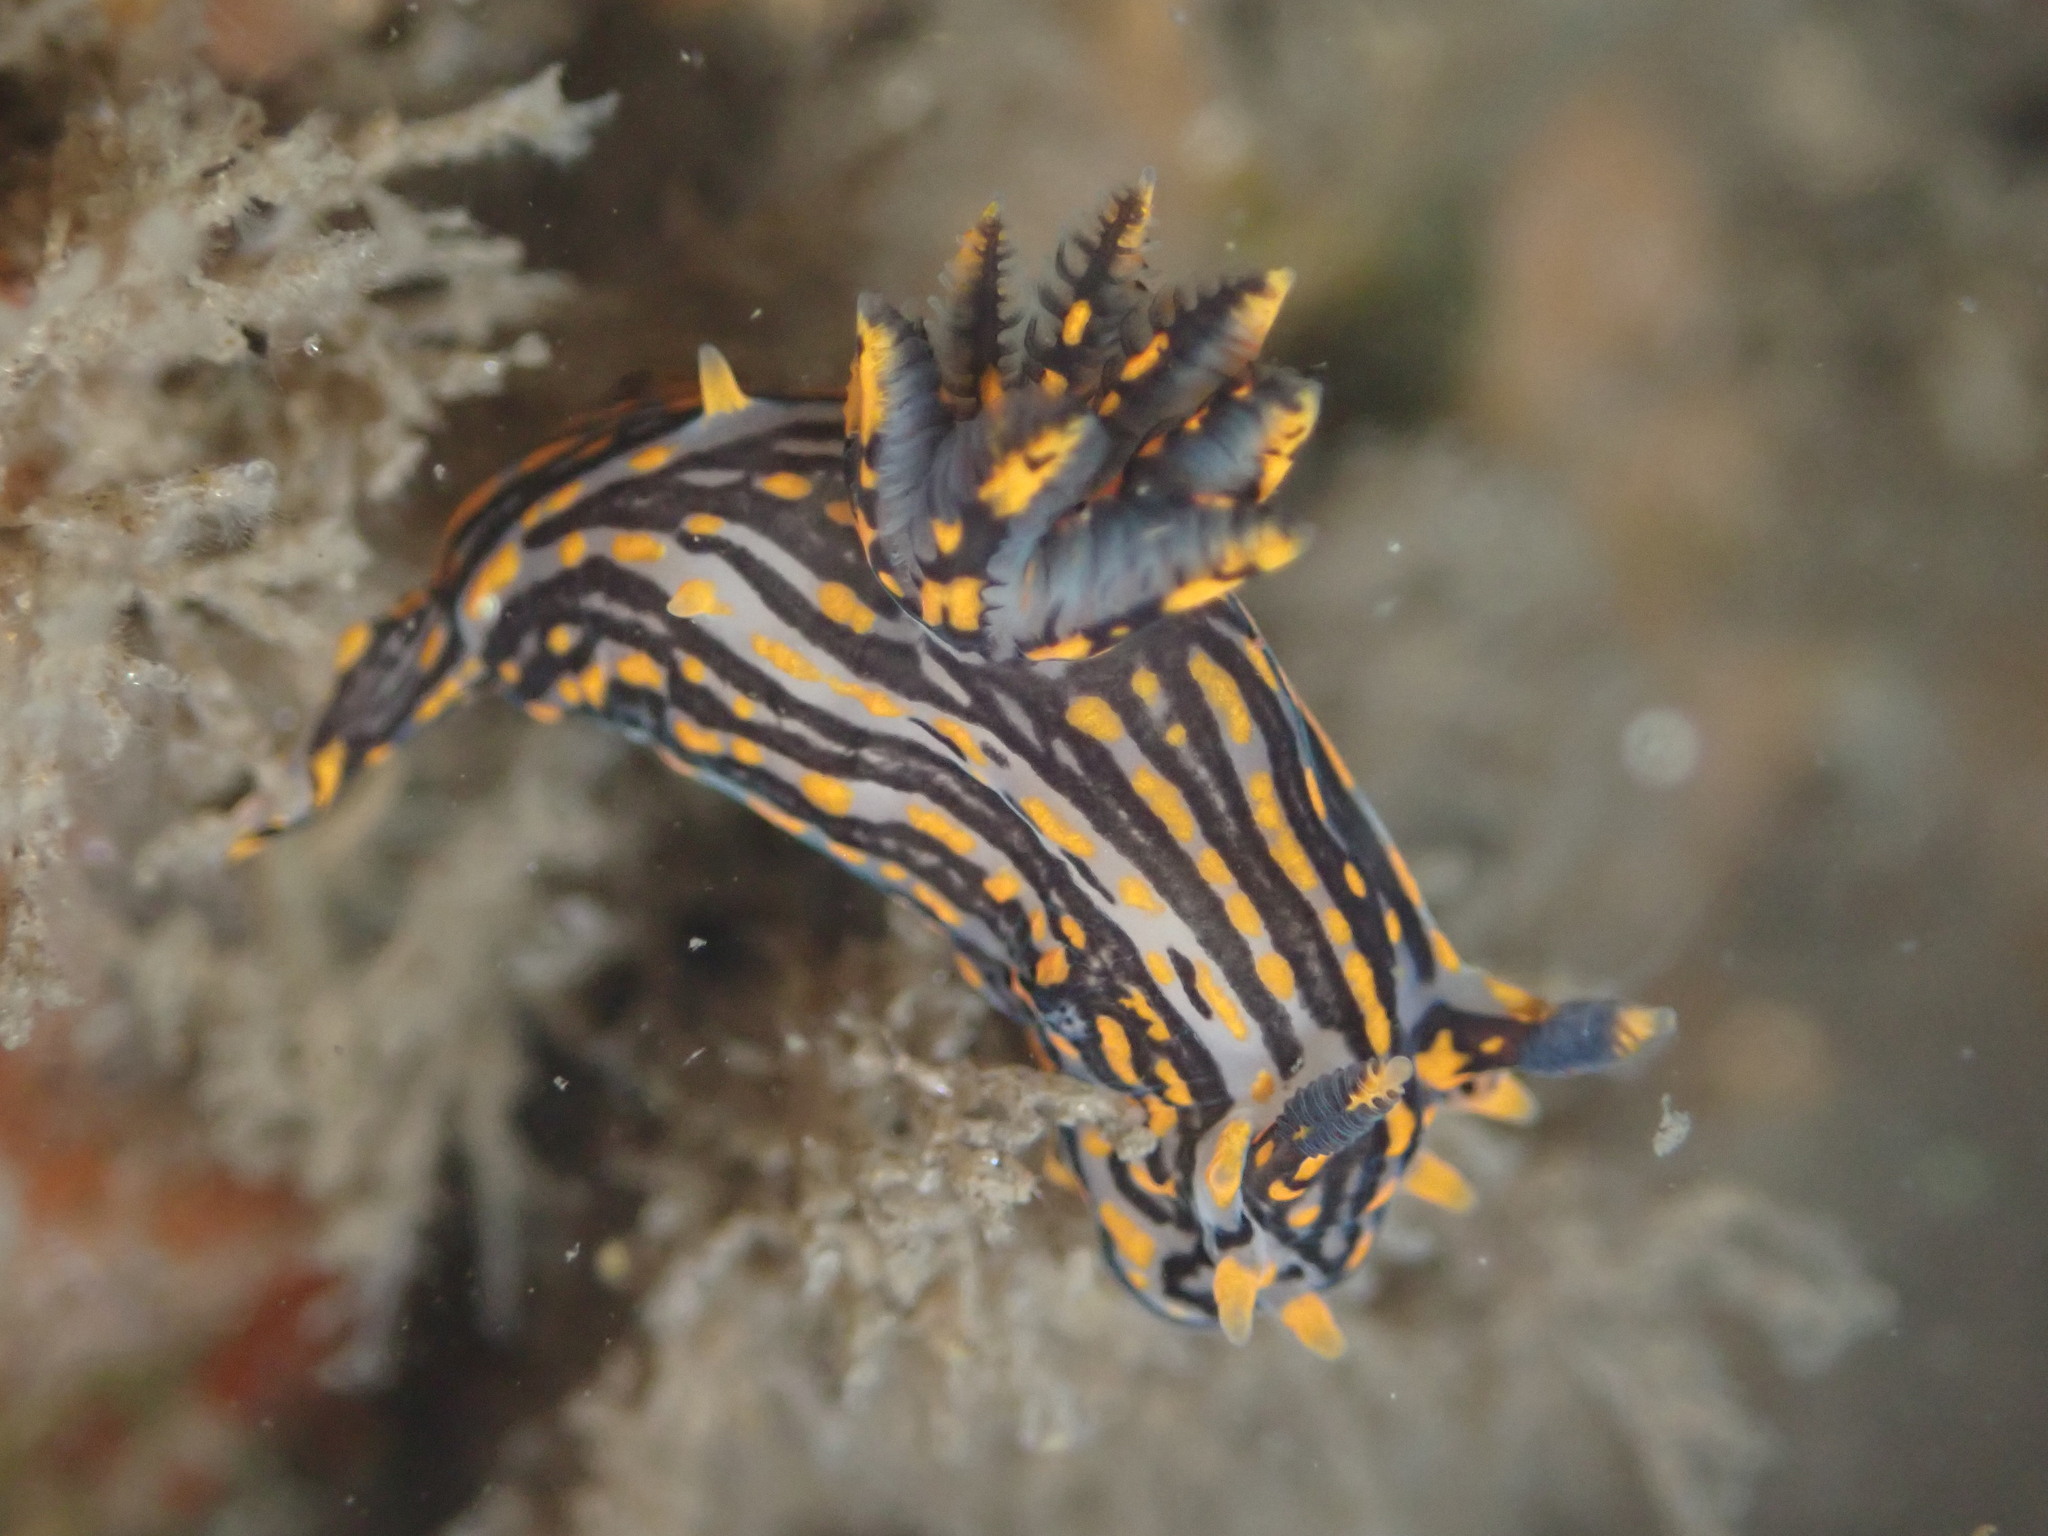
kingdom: Animalia
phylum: Mollusca
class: Gastropoda
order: Nudibranchia
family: Polyceridae
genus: Polycera
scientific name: Polycera atra
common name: Orange-spike polycera
